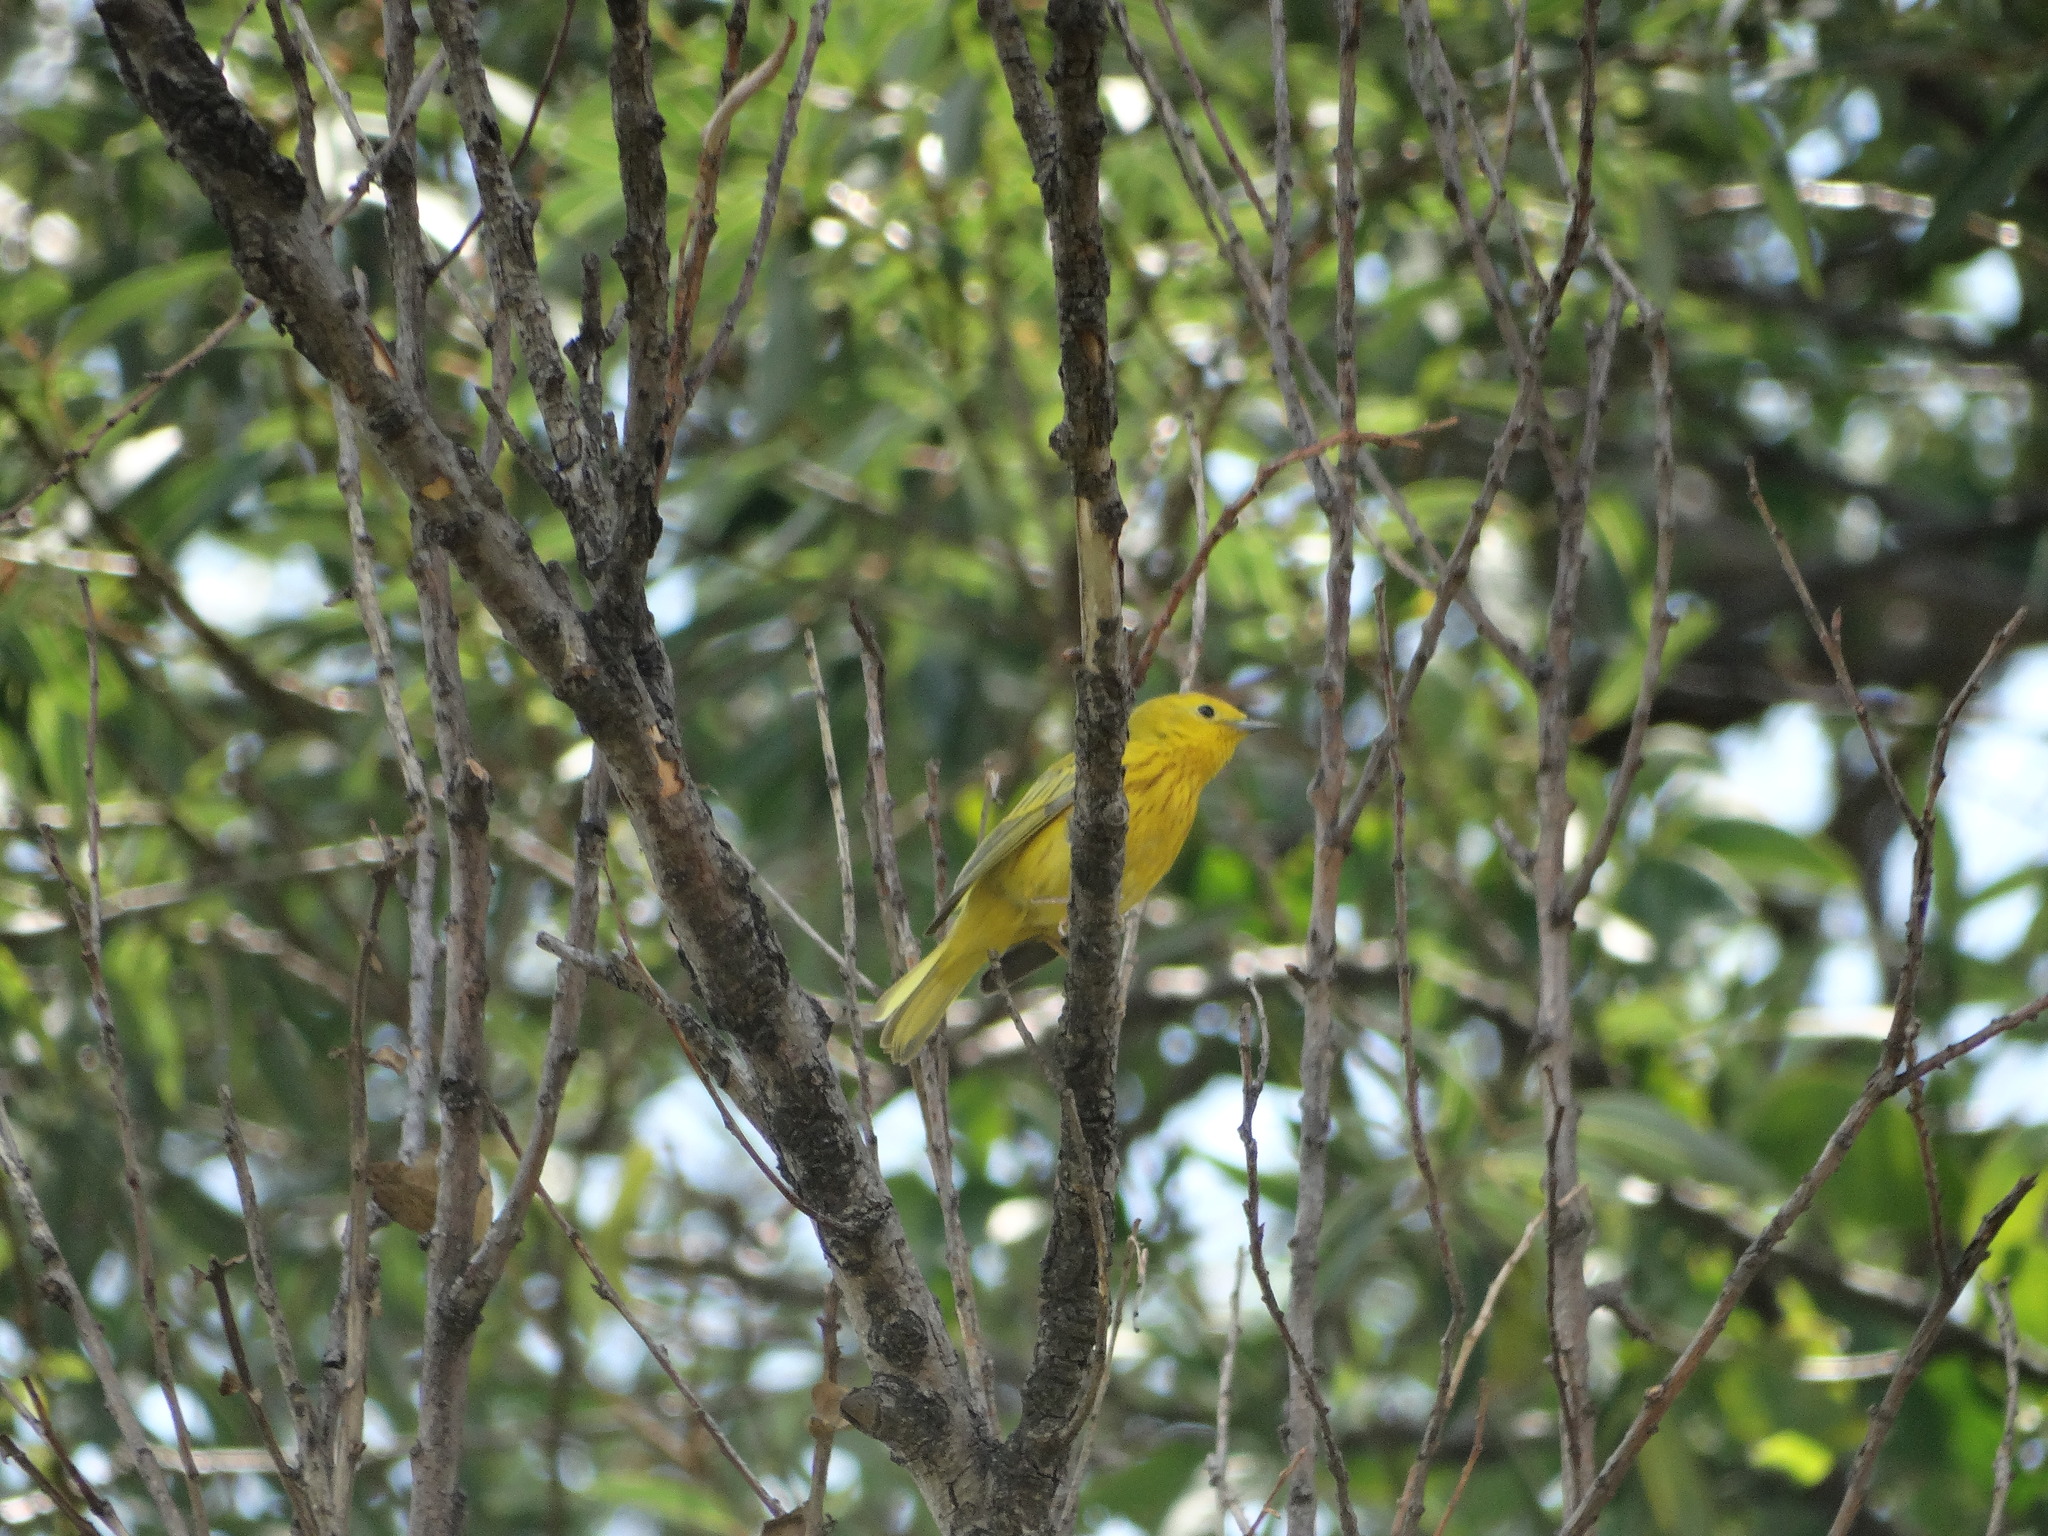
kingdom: Animalia
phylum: Chordata
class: Aves
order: Passeriformes
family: Parulidae
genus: Setophaga
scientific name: Setophaga petechia
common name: Yellow warbler
